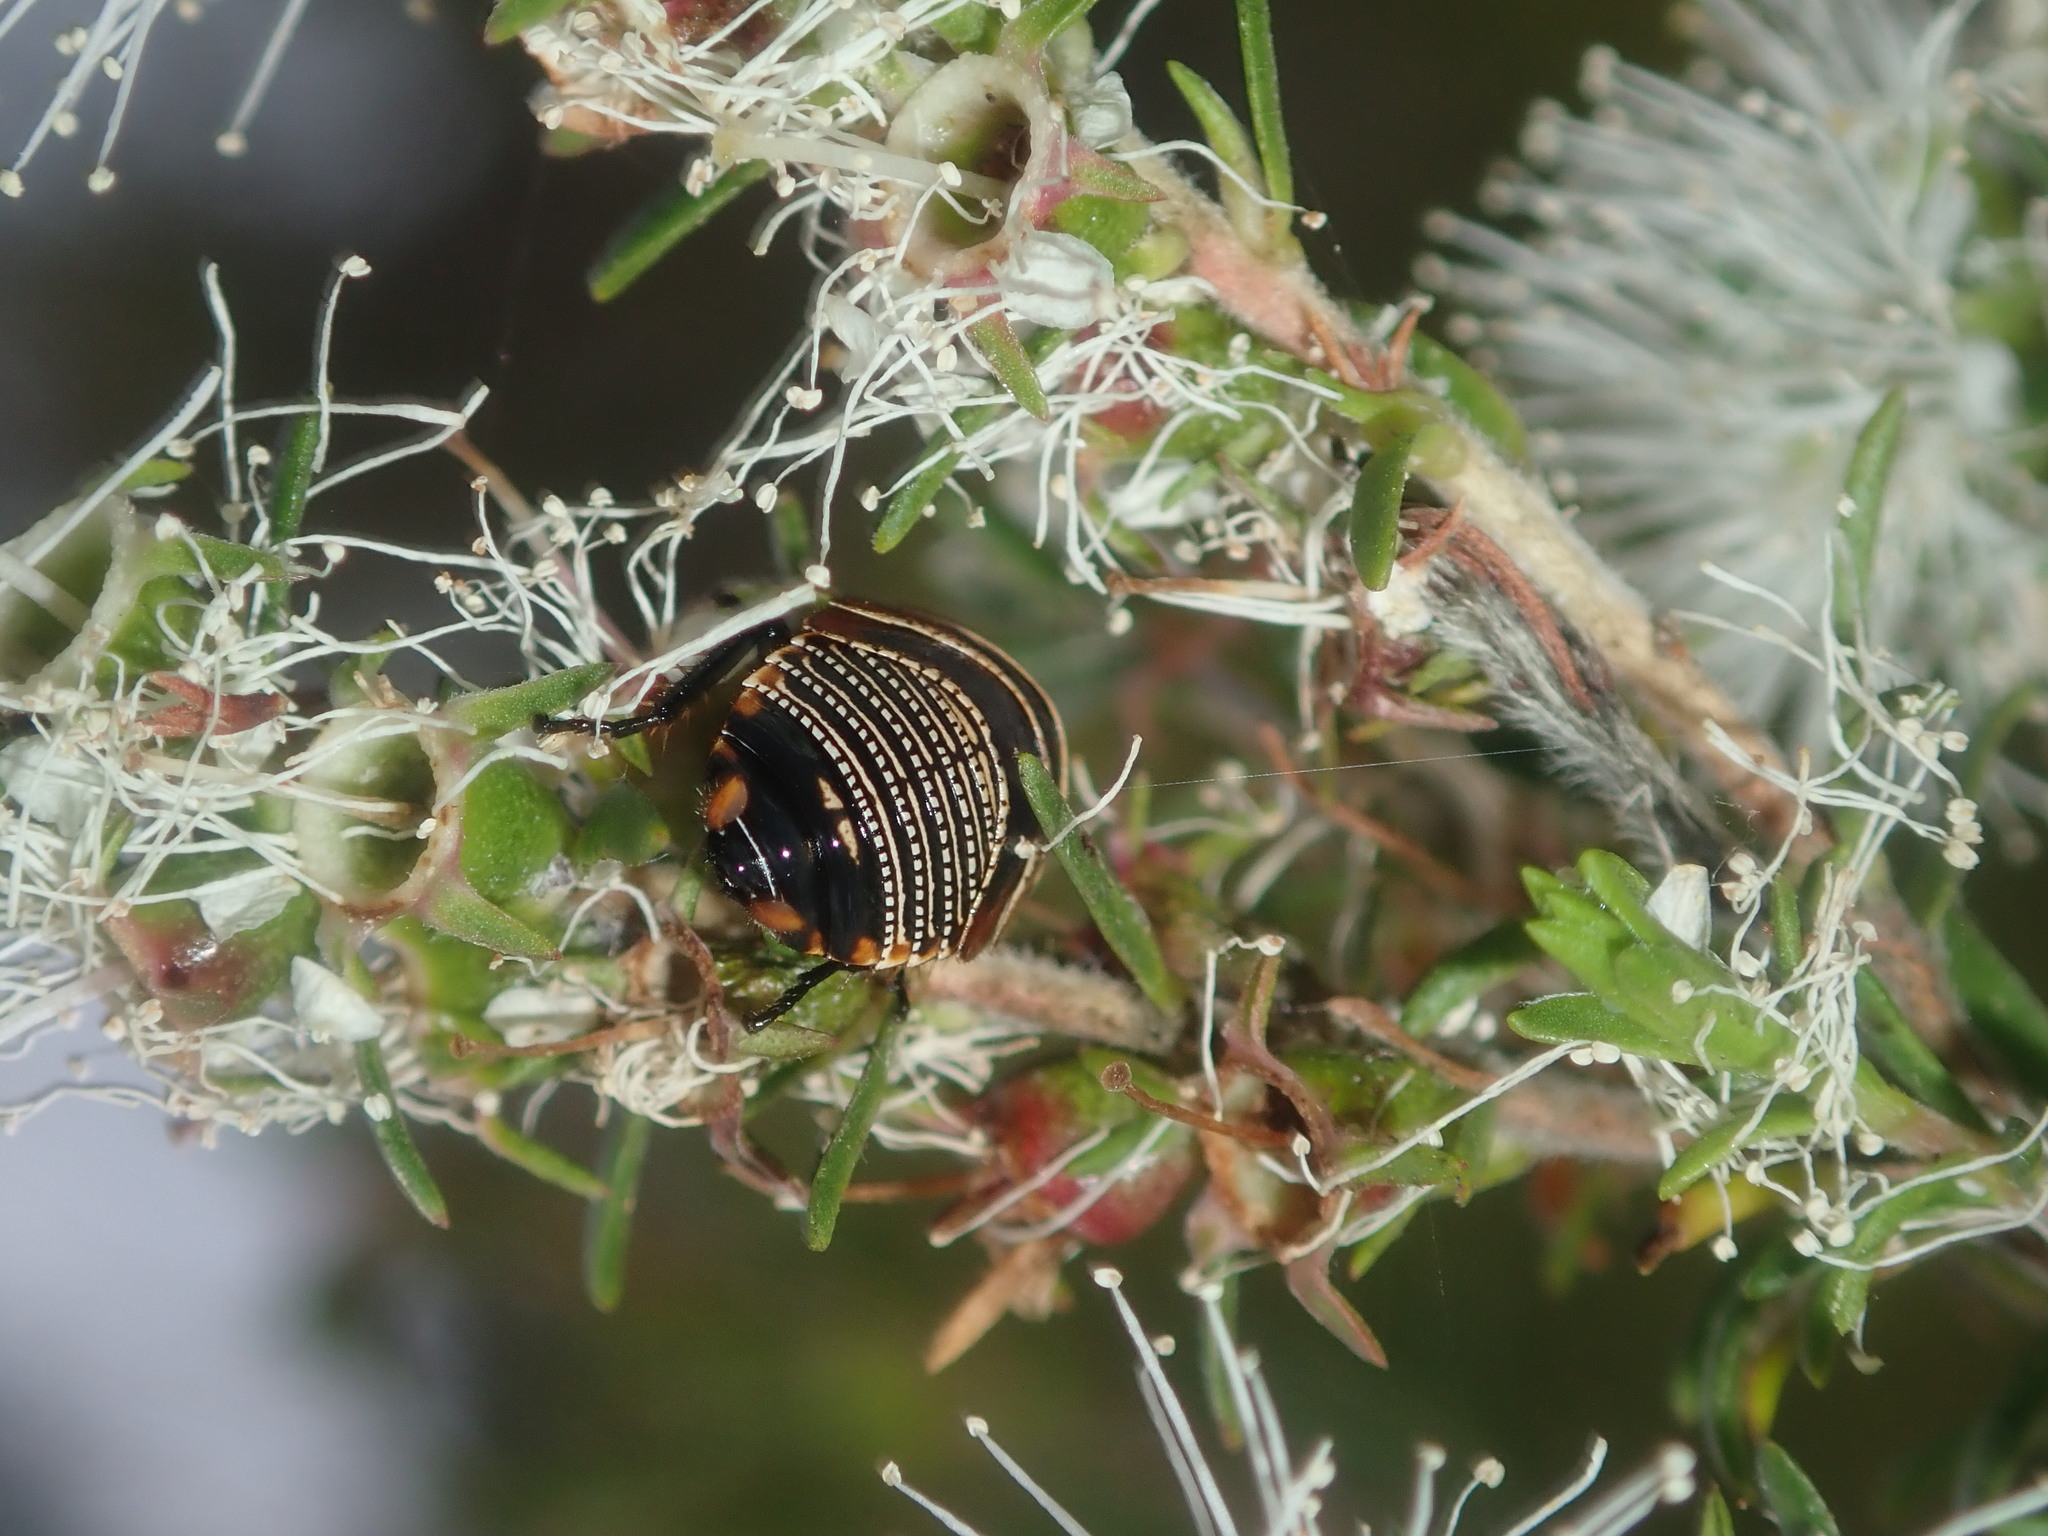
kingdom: Animalia
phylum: Arthropoda
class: Insecta
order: Blattodea
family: Ectobiidae
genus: Ellipsidion
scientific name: Ellipsidion australe
